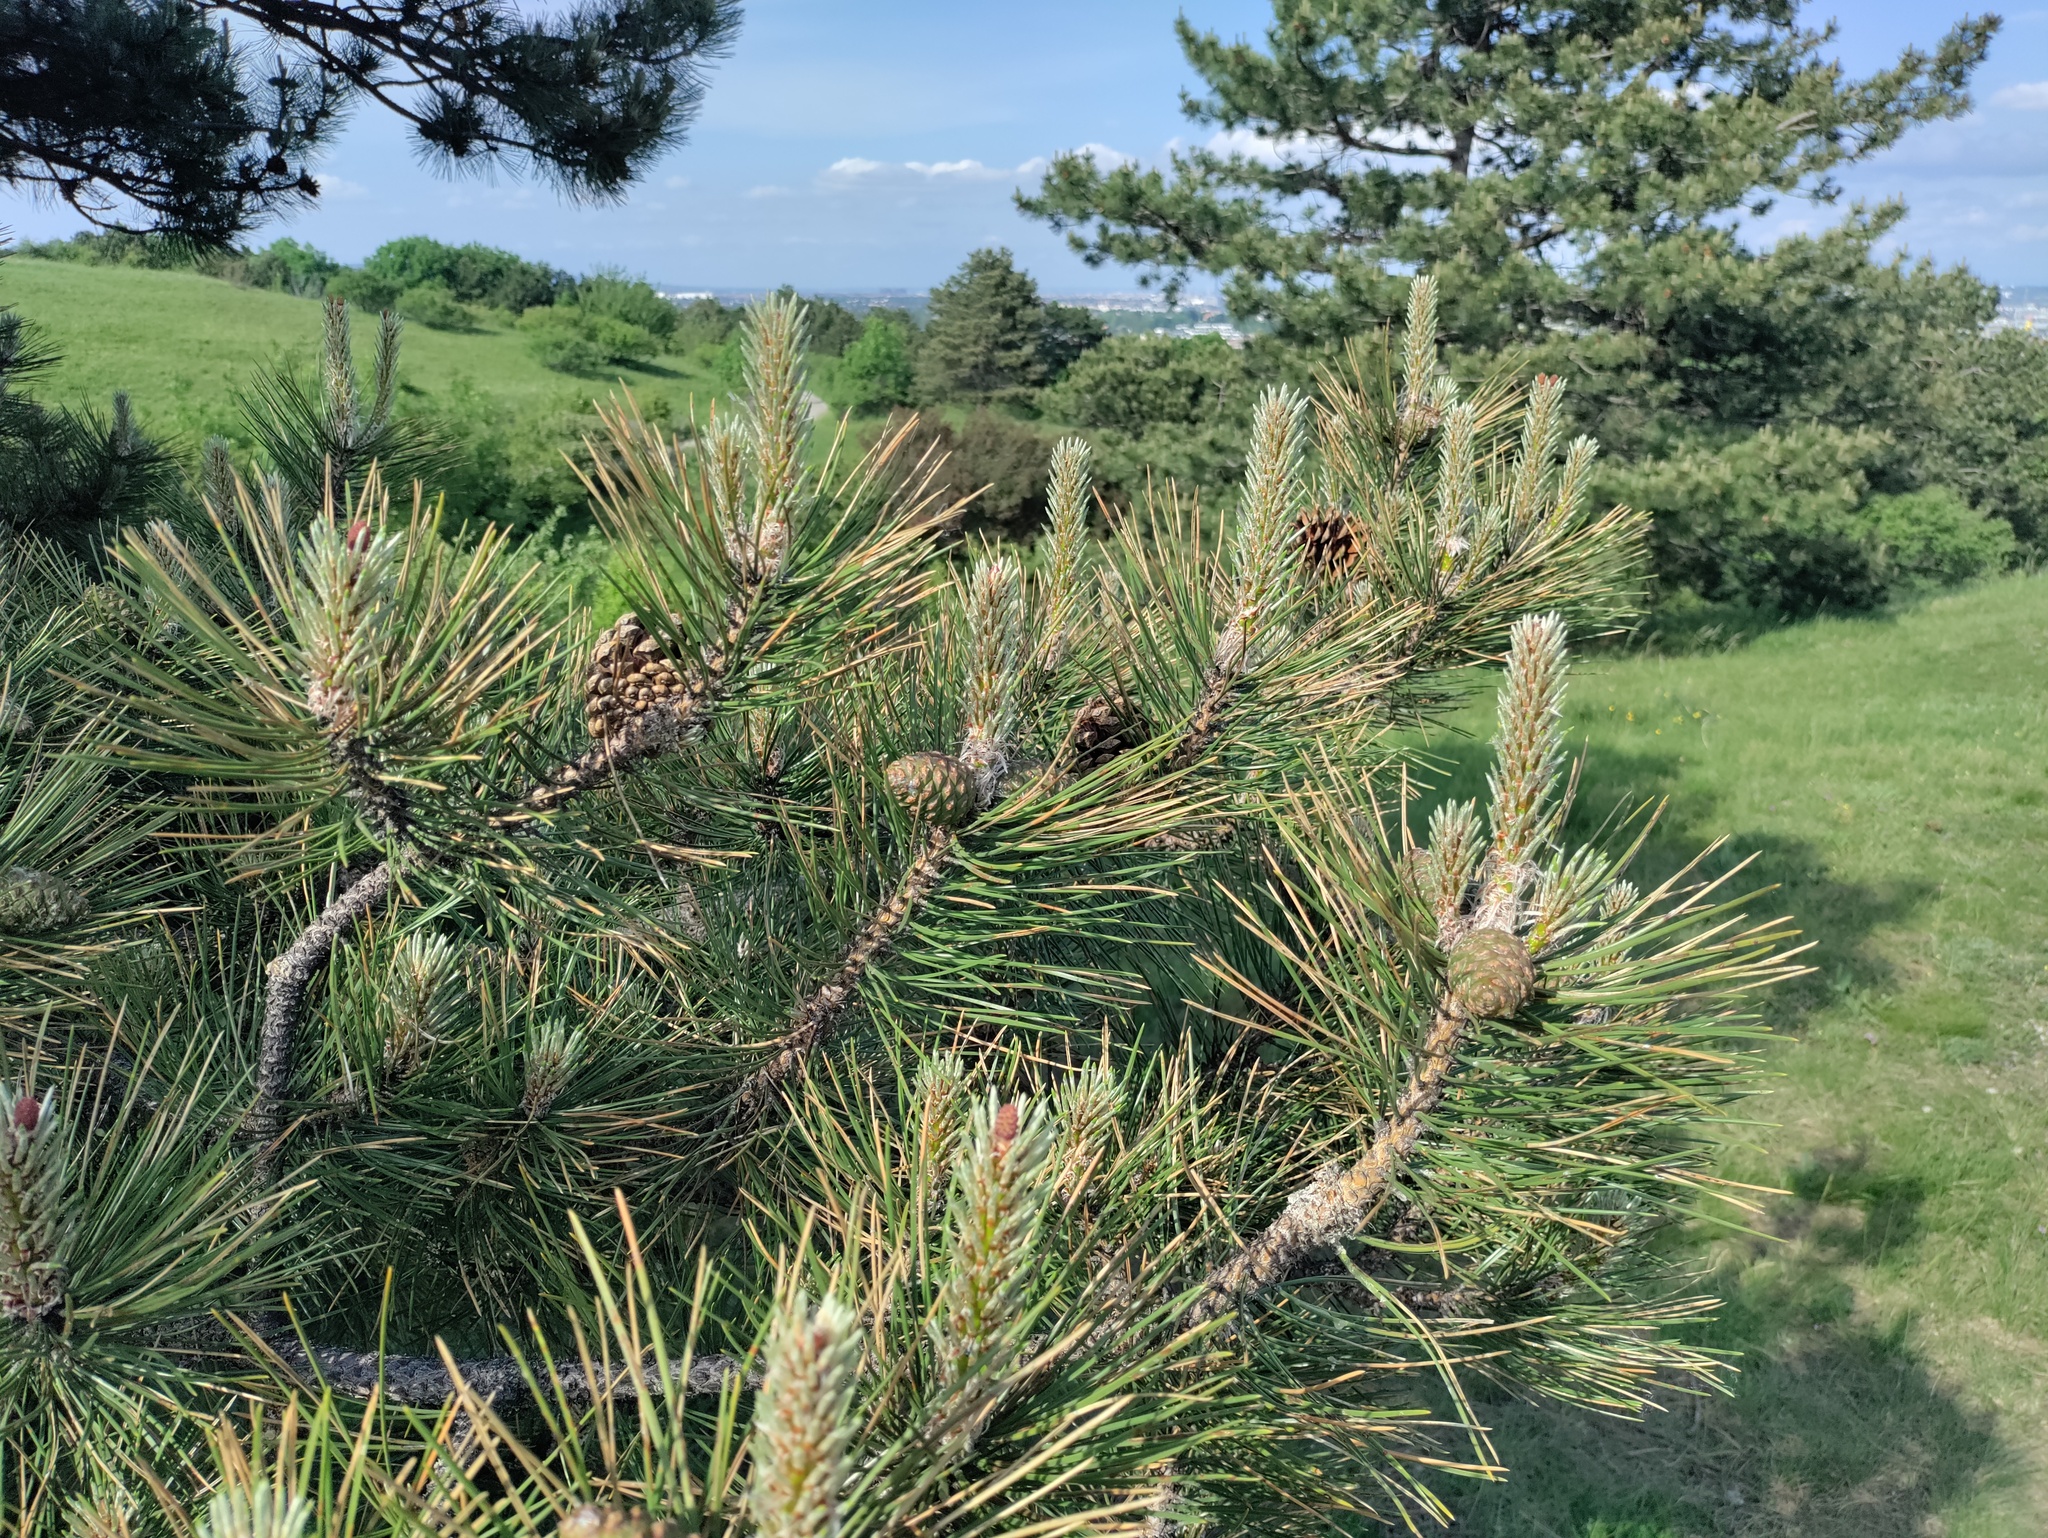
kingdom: Plantae
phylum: Tracheophyta
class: Pinopsida
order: Pinales
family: Pinaceae
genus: Pinus
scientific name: Pinus nigra
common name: Austrian pine
